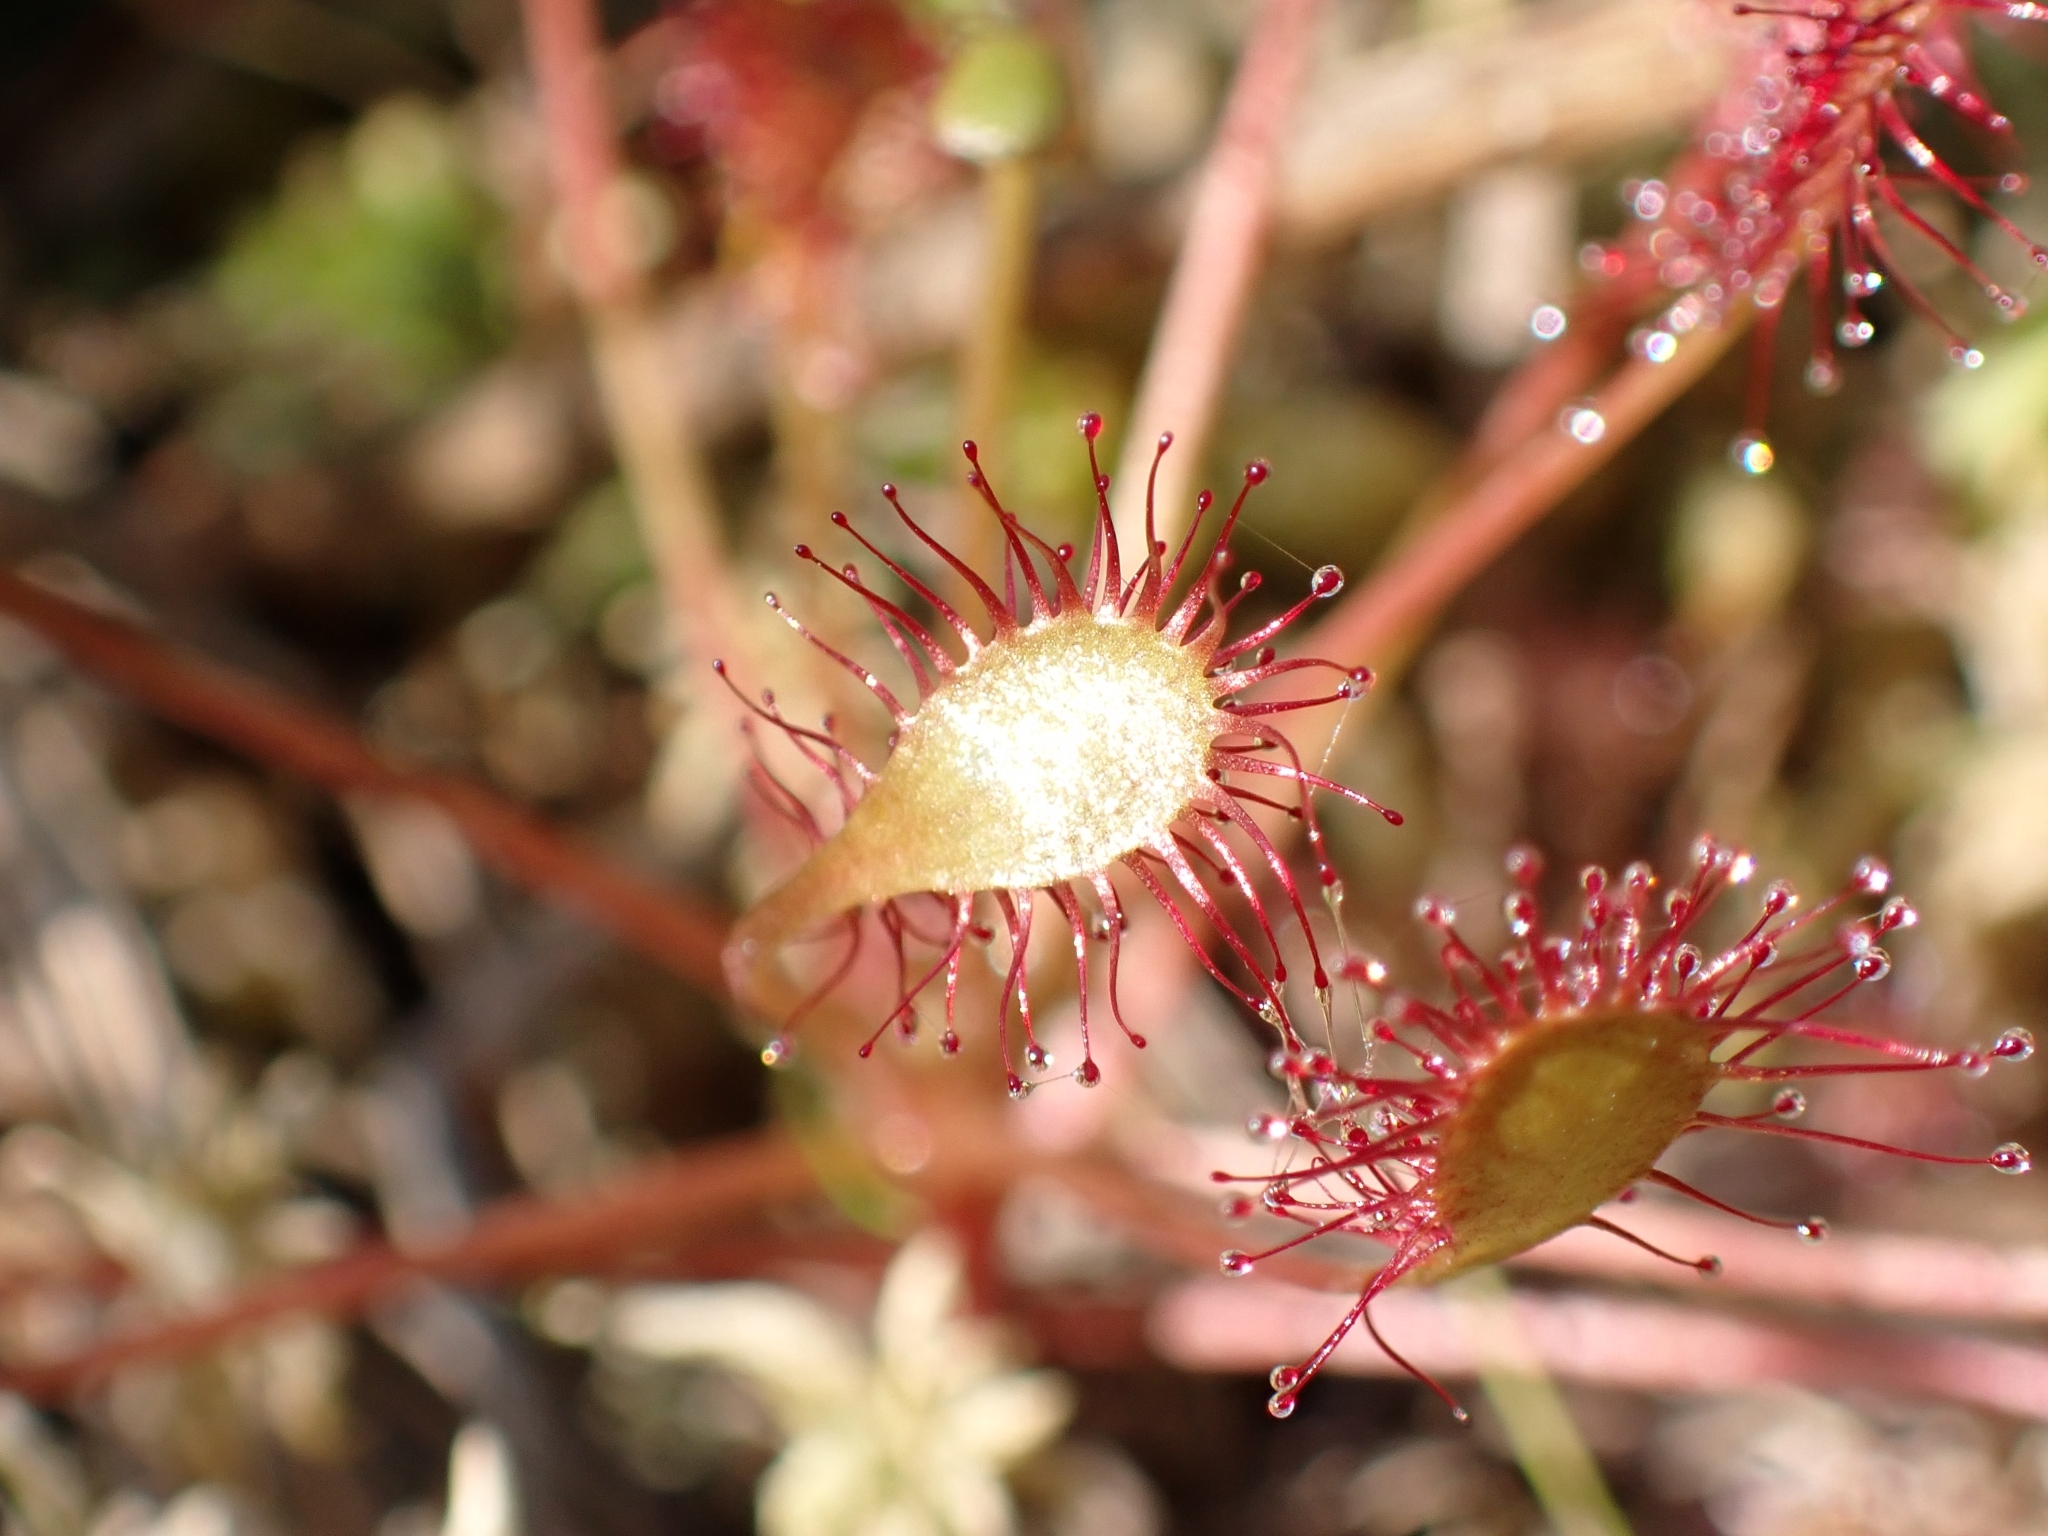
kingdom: Plantae
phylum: Tracheophyta
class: Magnoliopsida
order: Caryophyllales
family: Droseraceae
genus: Drosera
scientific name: Drosera intermedia
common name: Oblong-leaved sundew
